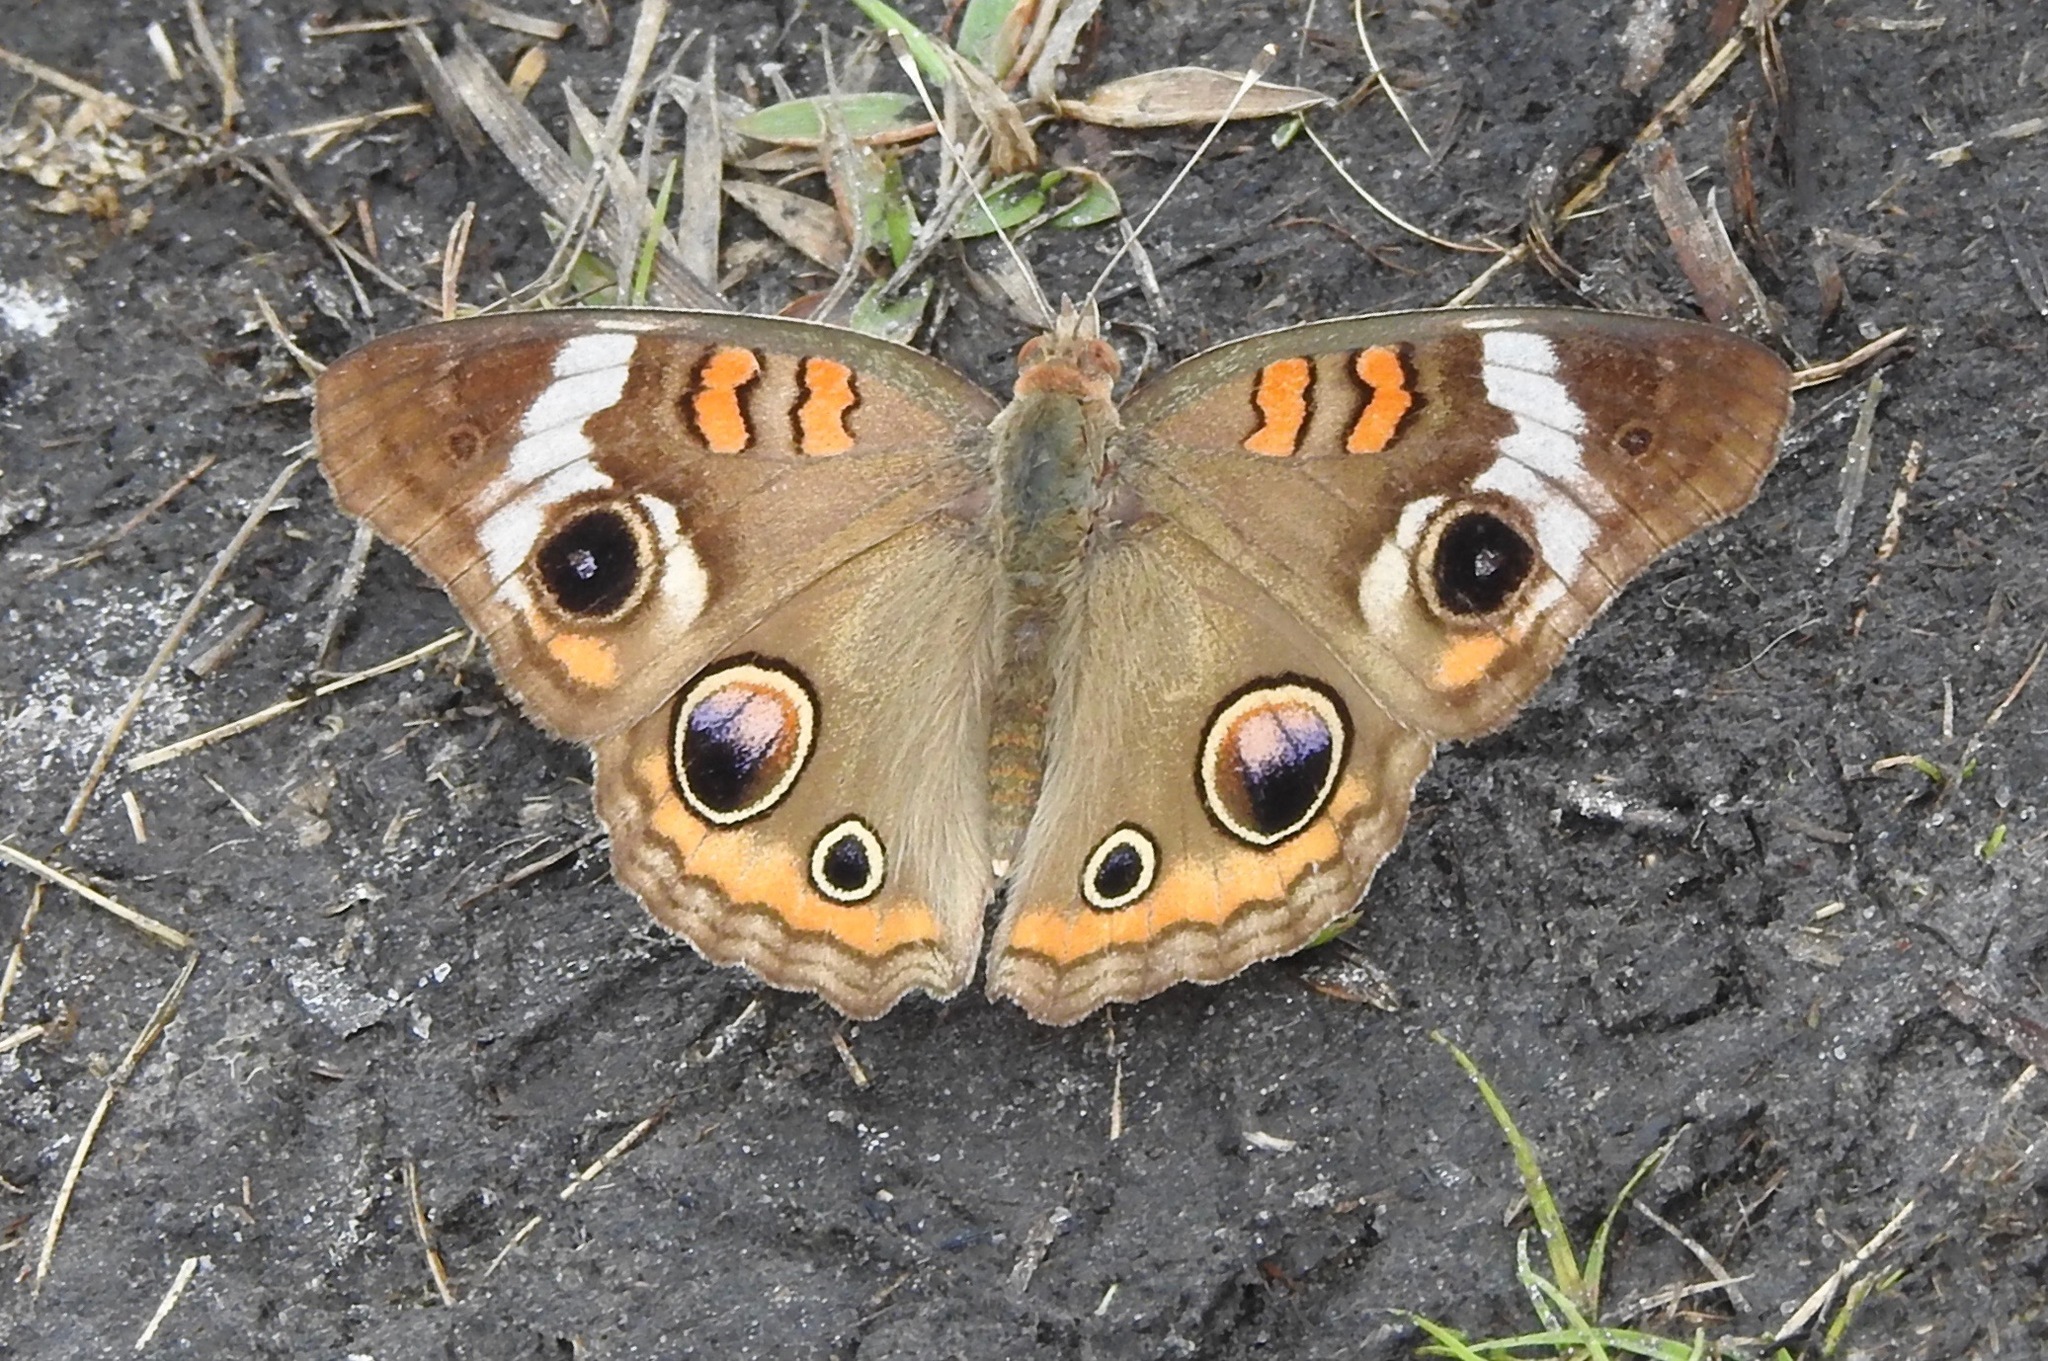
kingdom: Animalia
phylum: Arthropoda
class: Insecta
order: Lepidoptera
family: Nymphalidae
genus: Junonia
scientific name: Junonia coenia
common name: Common buckeye
